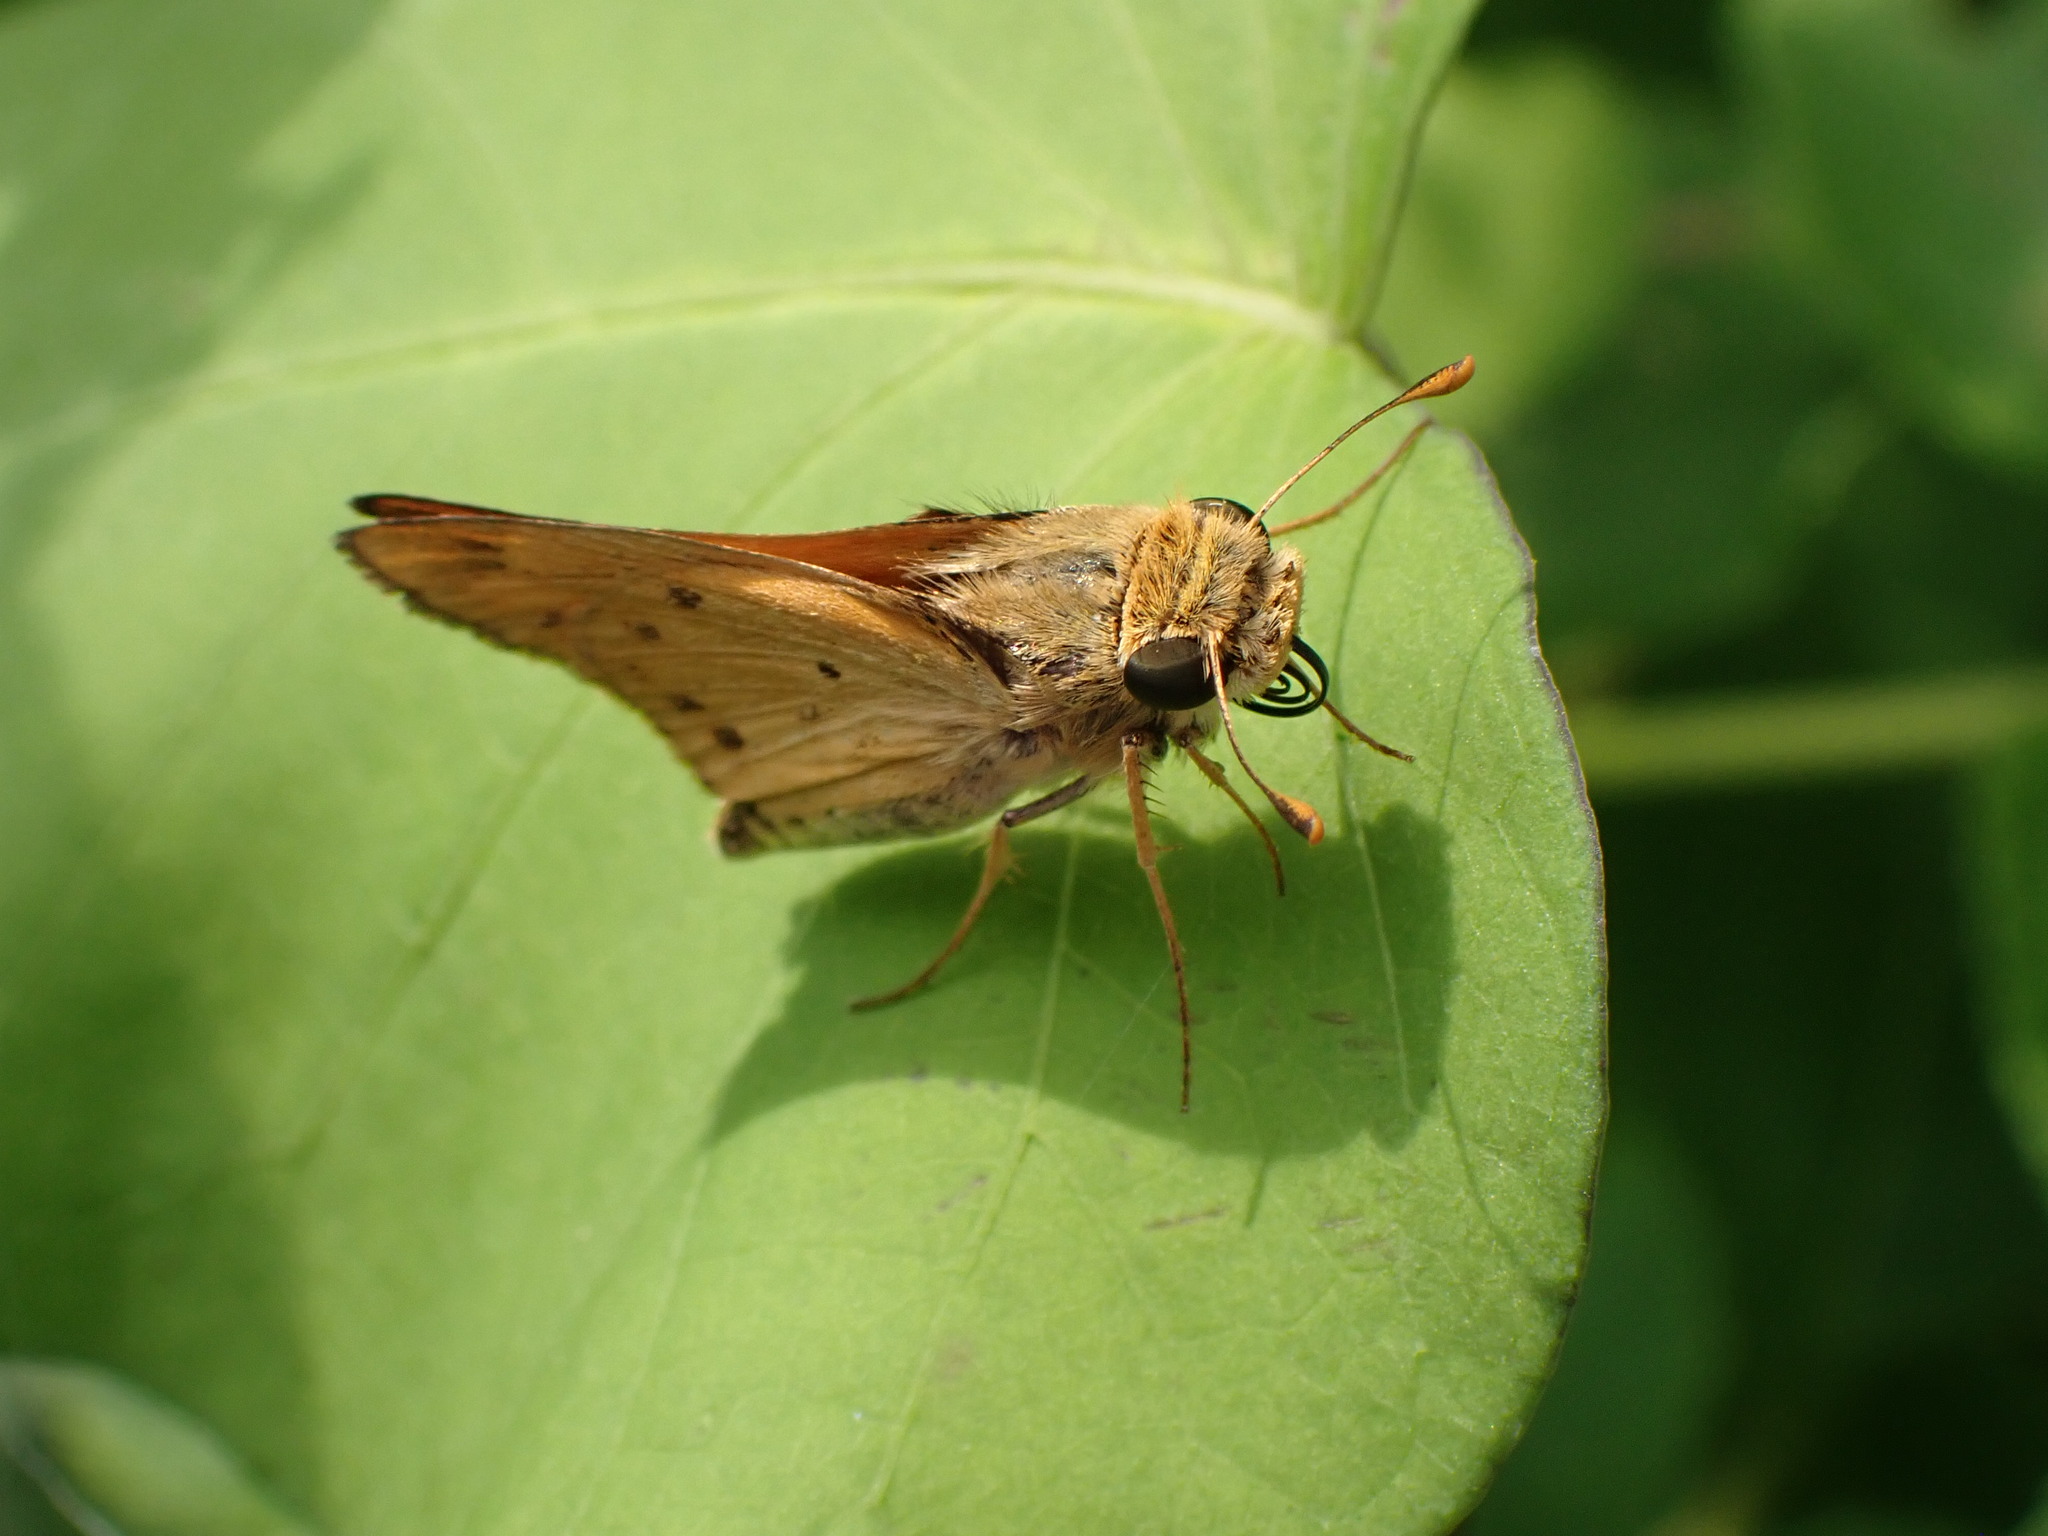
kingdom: Animalia
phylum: Arthropoda
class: Insecta
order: Lepidoptera
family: Hesperiidae
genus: Hylephila
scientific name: Hylephila phyleus
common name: Fiery skipper
